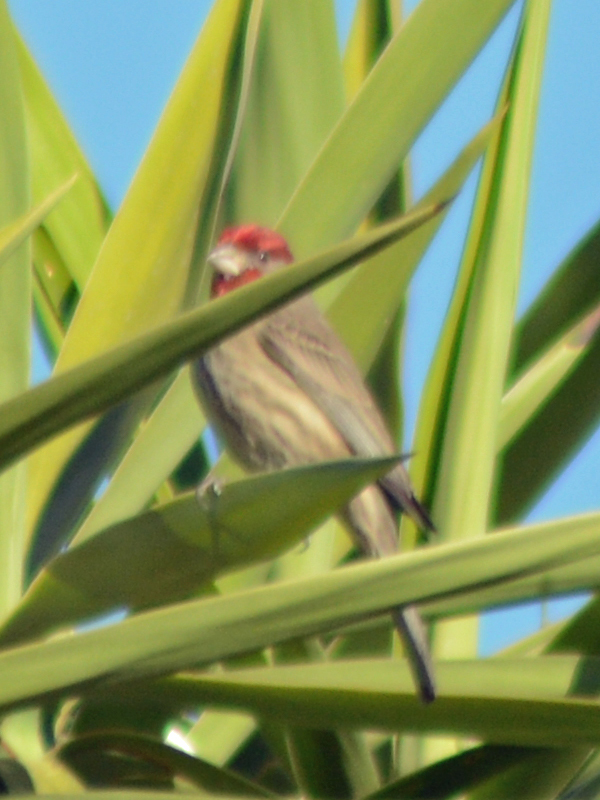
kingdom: Animalia
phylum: Chordata
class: Aves
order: Passeriformes
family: Fringillidae
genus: Haemorhous
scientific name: Haemorhous mexicanus
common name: House finch
